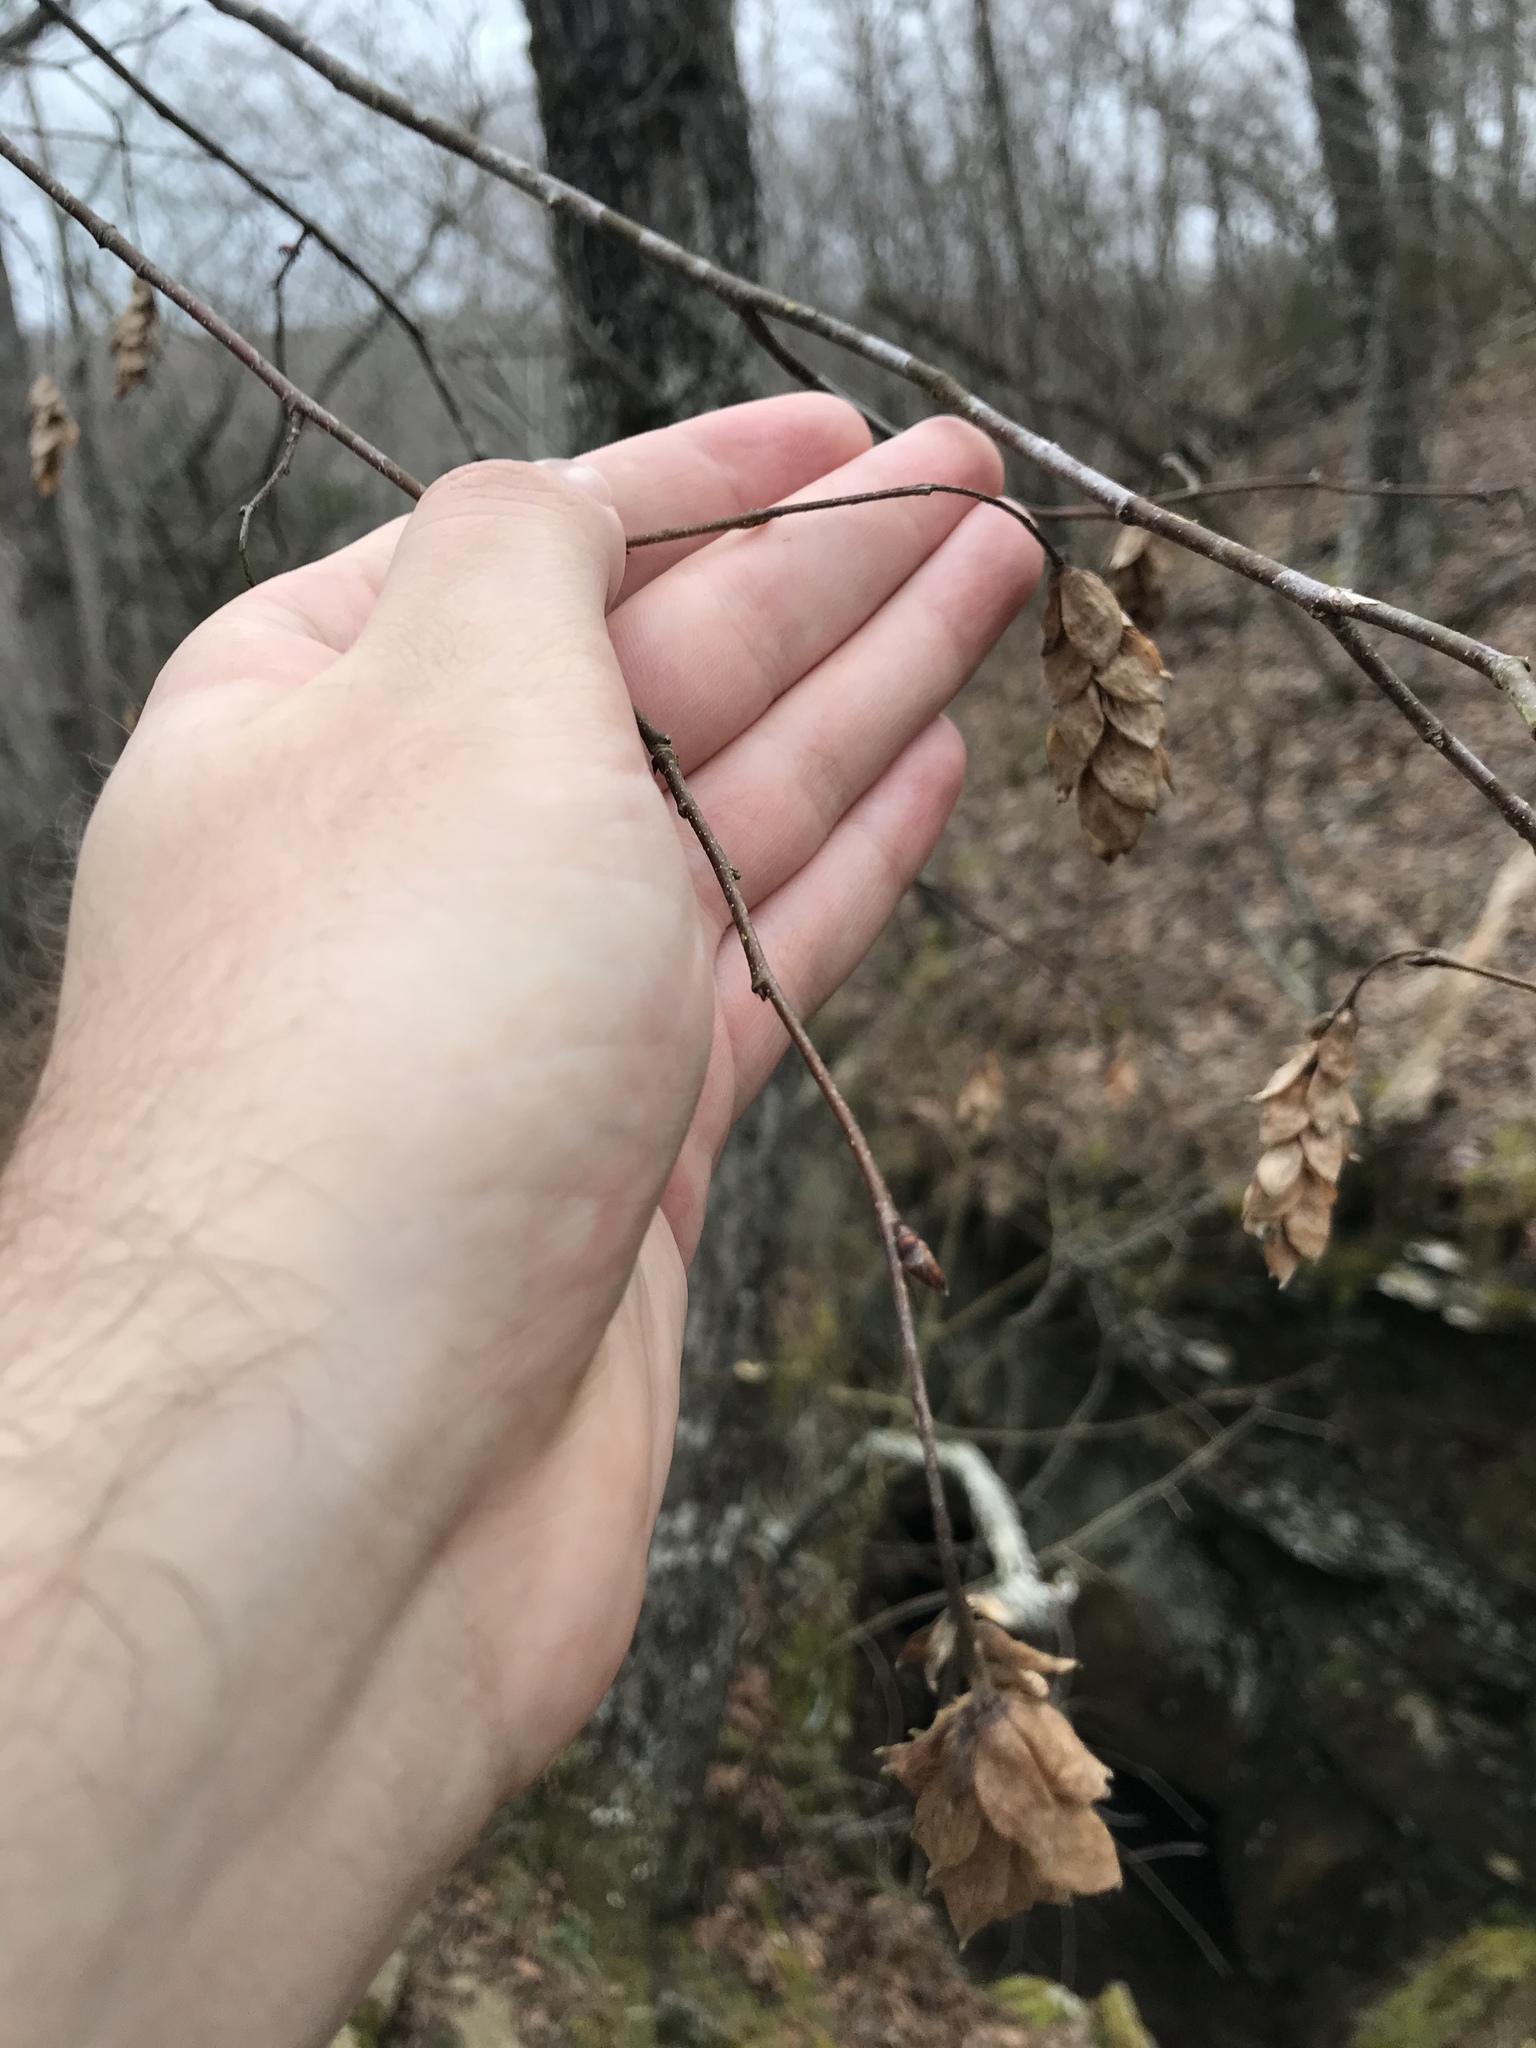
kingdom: Plantae
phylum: Tracheophyta
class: Magnoliopsida
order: Fagales
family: Betulaceae
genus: Ostrya
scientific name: Ostrya virginiana
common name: Ironwood
